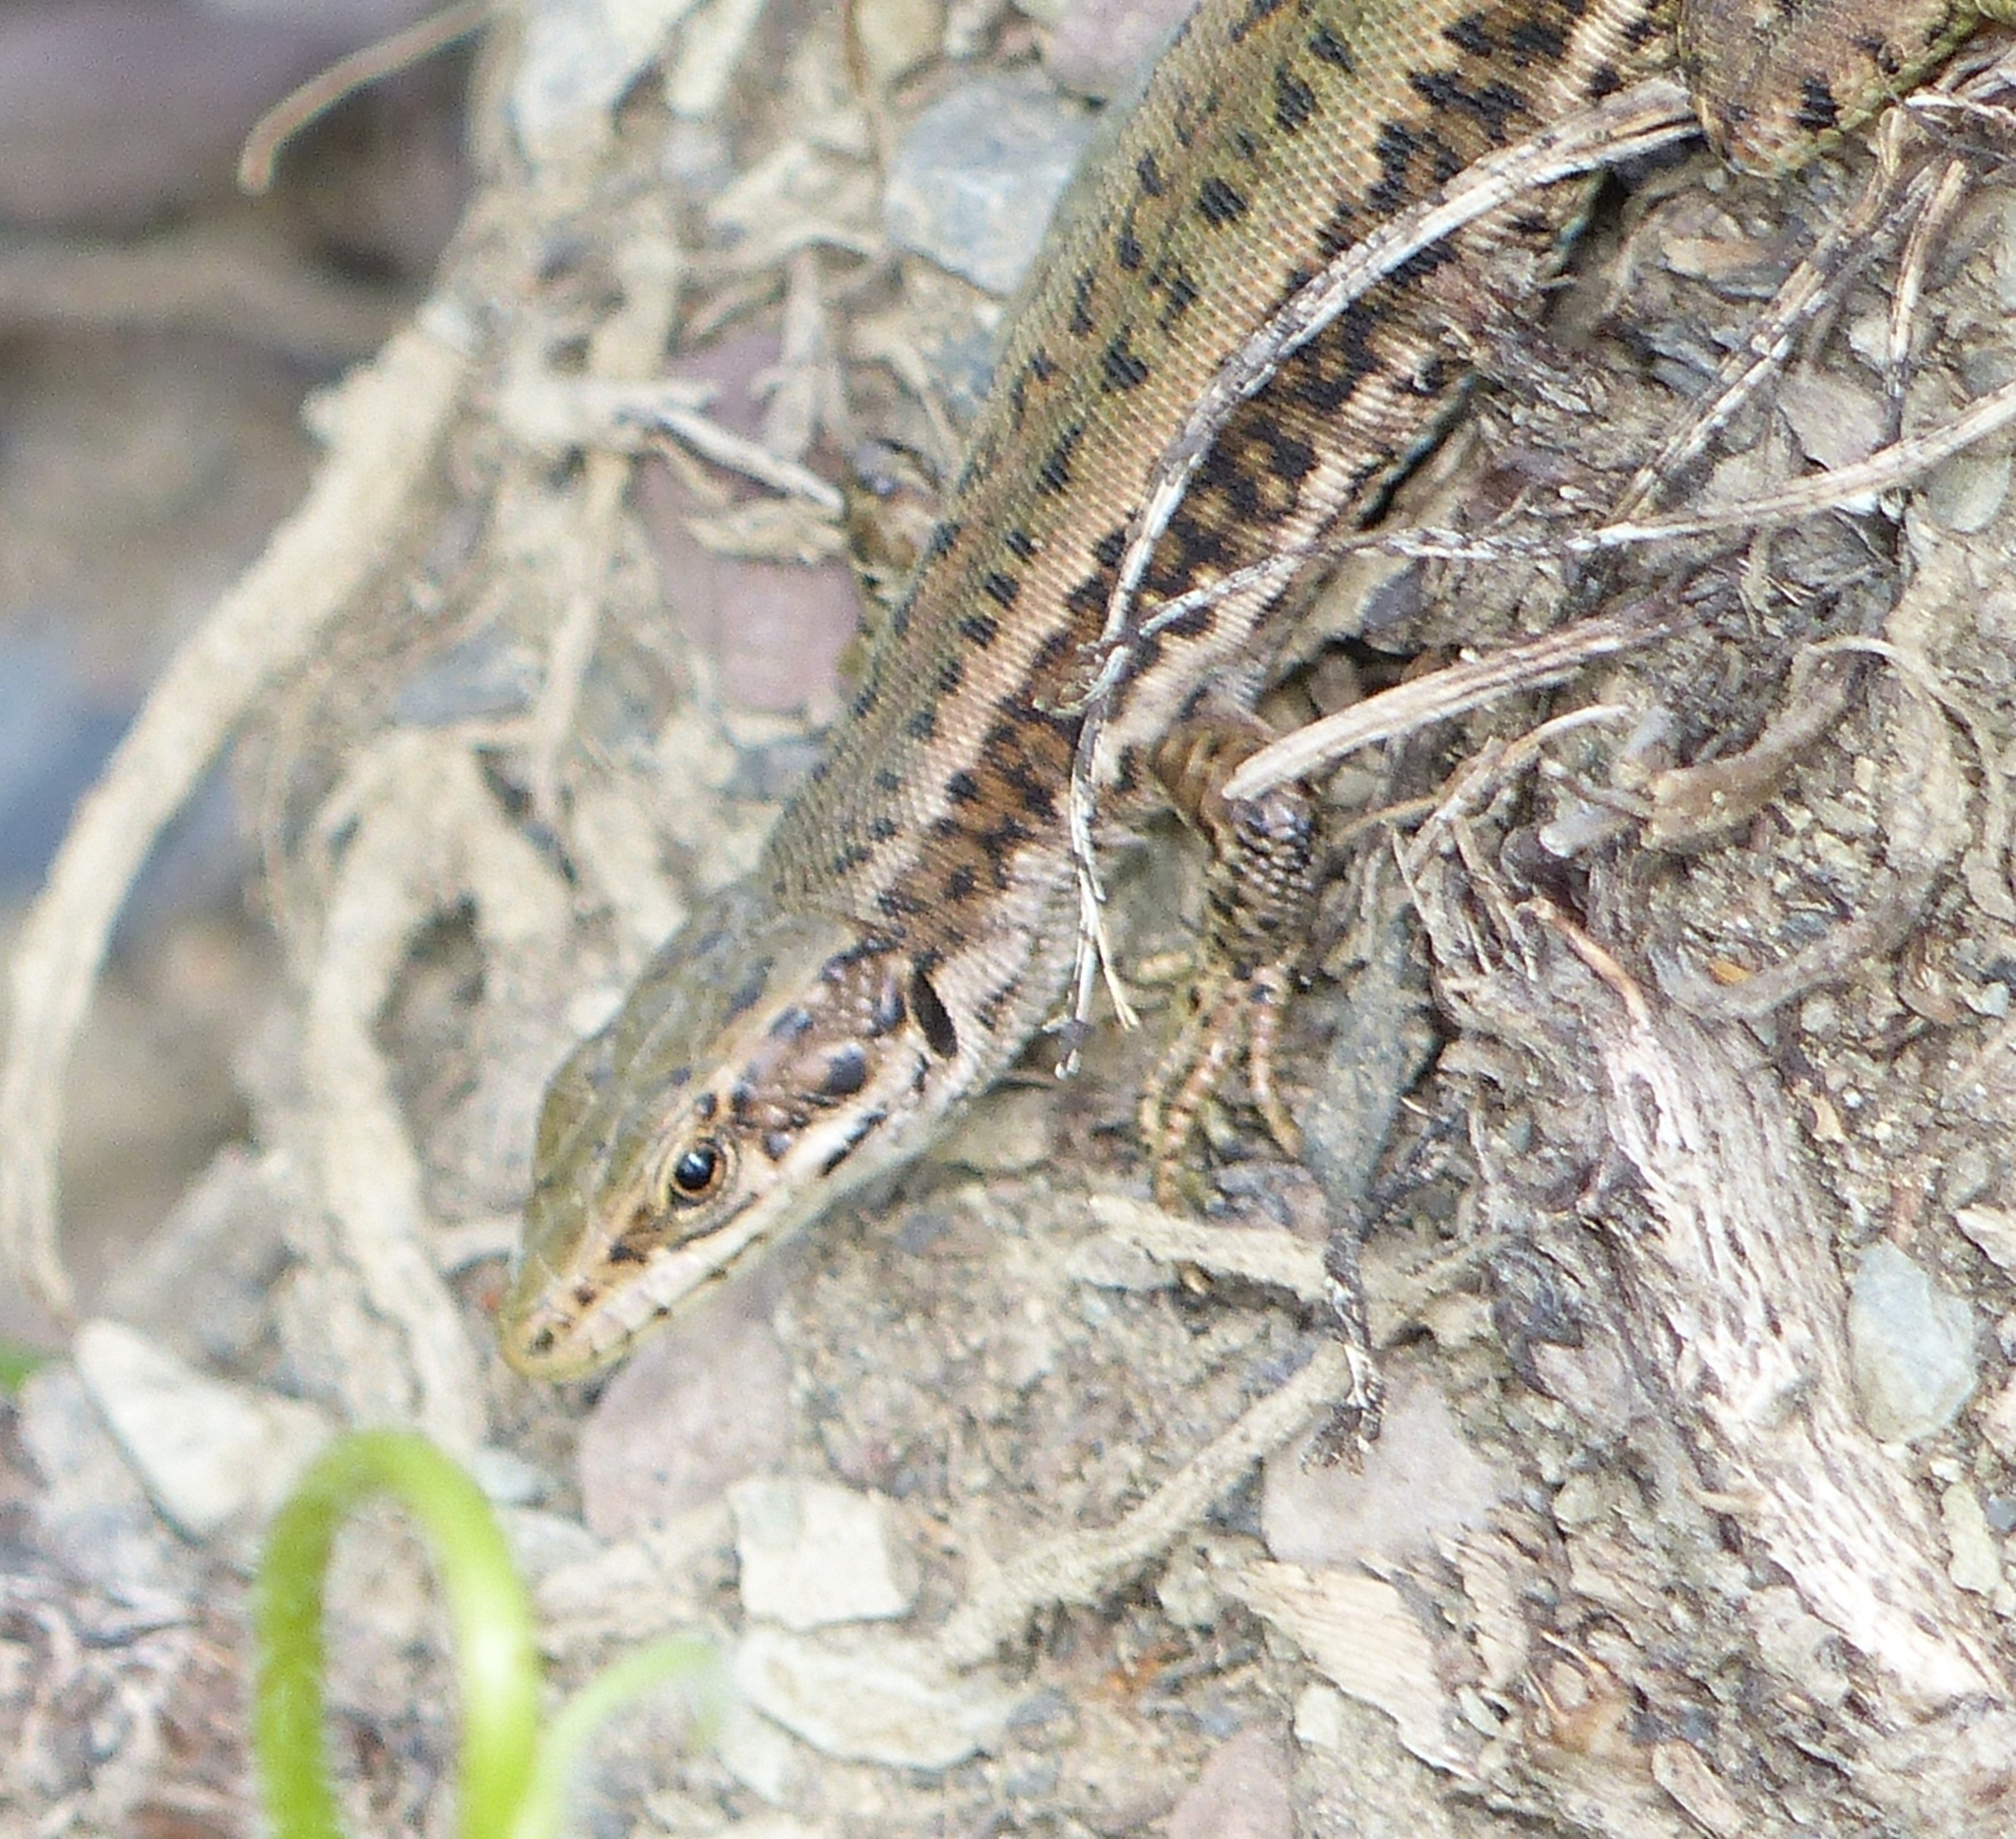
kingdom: Animalia
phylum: Chordata
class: Squamata
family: Lacertidae
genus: Darevskia
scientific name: Darevskia brauneri
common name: Brauner's rock lizard
